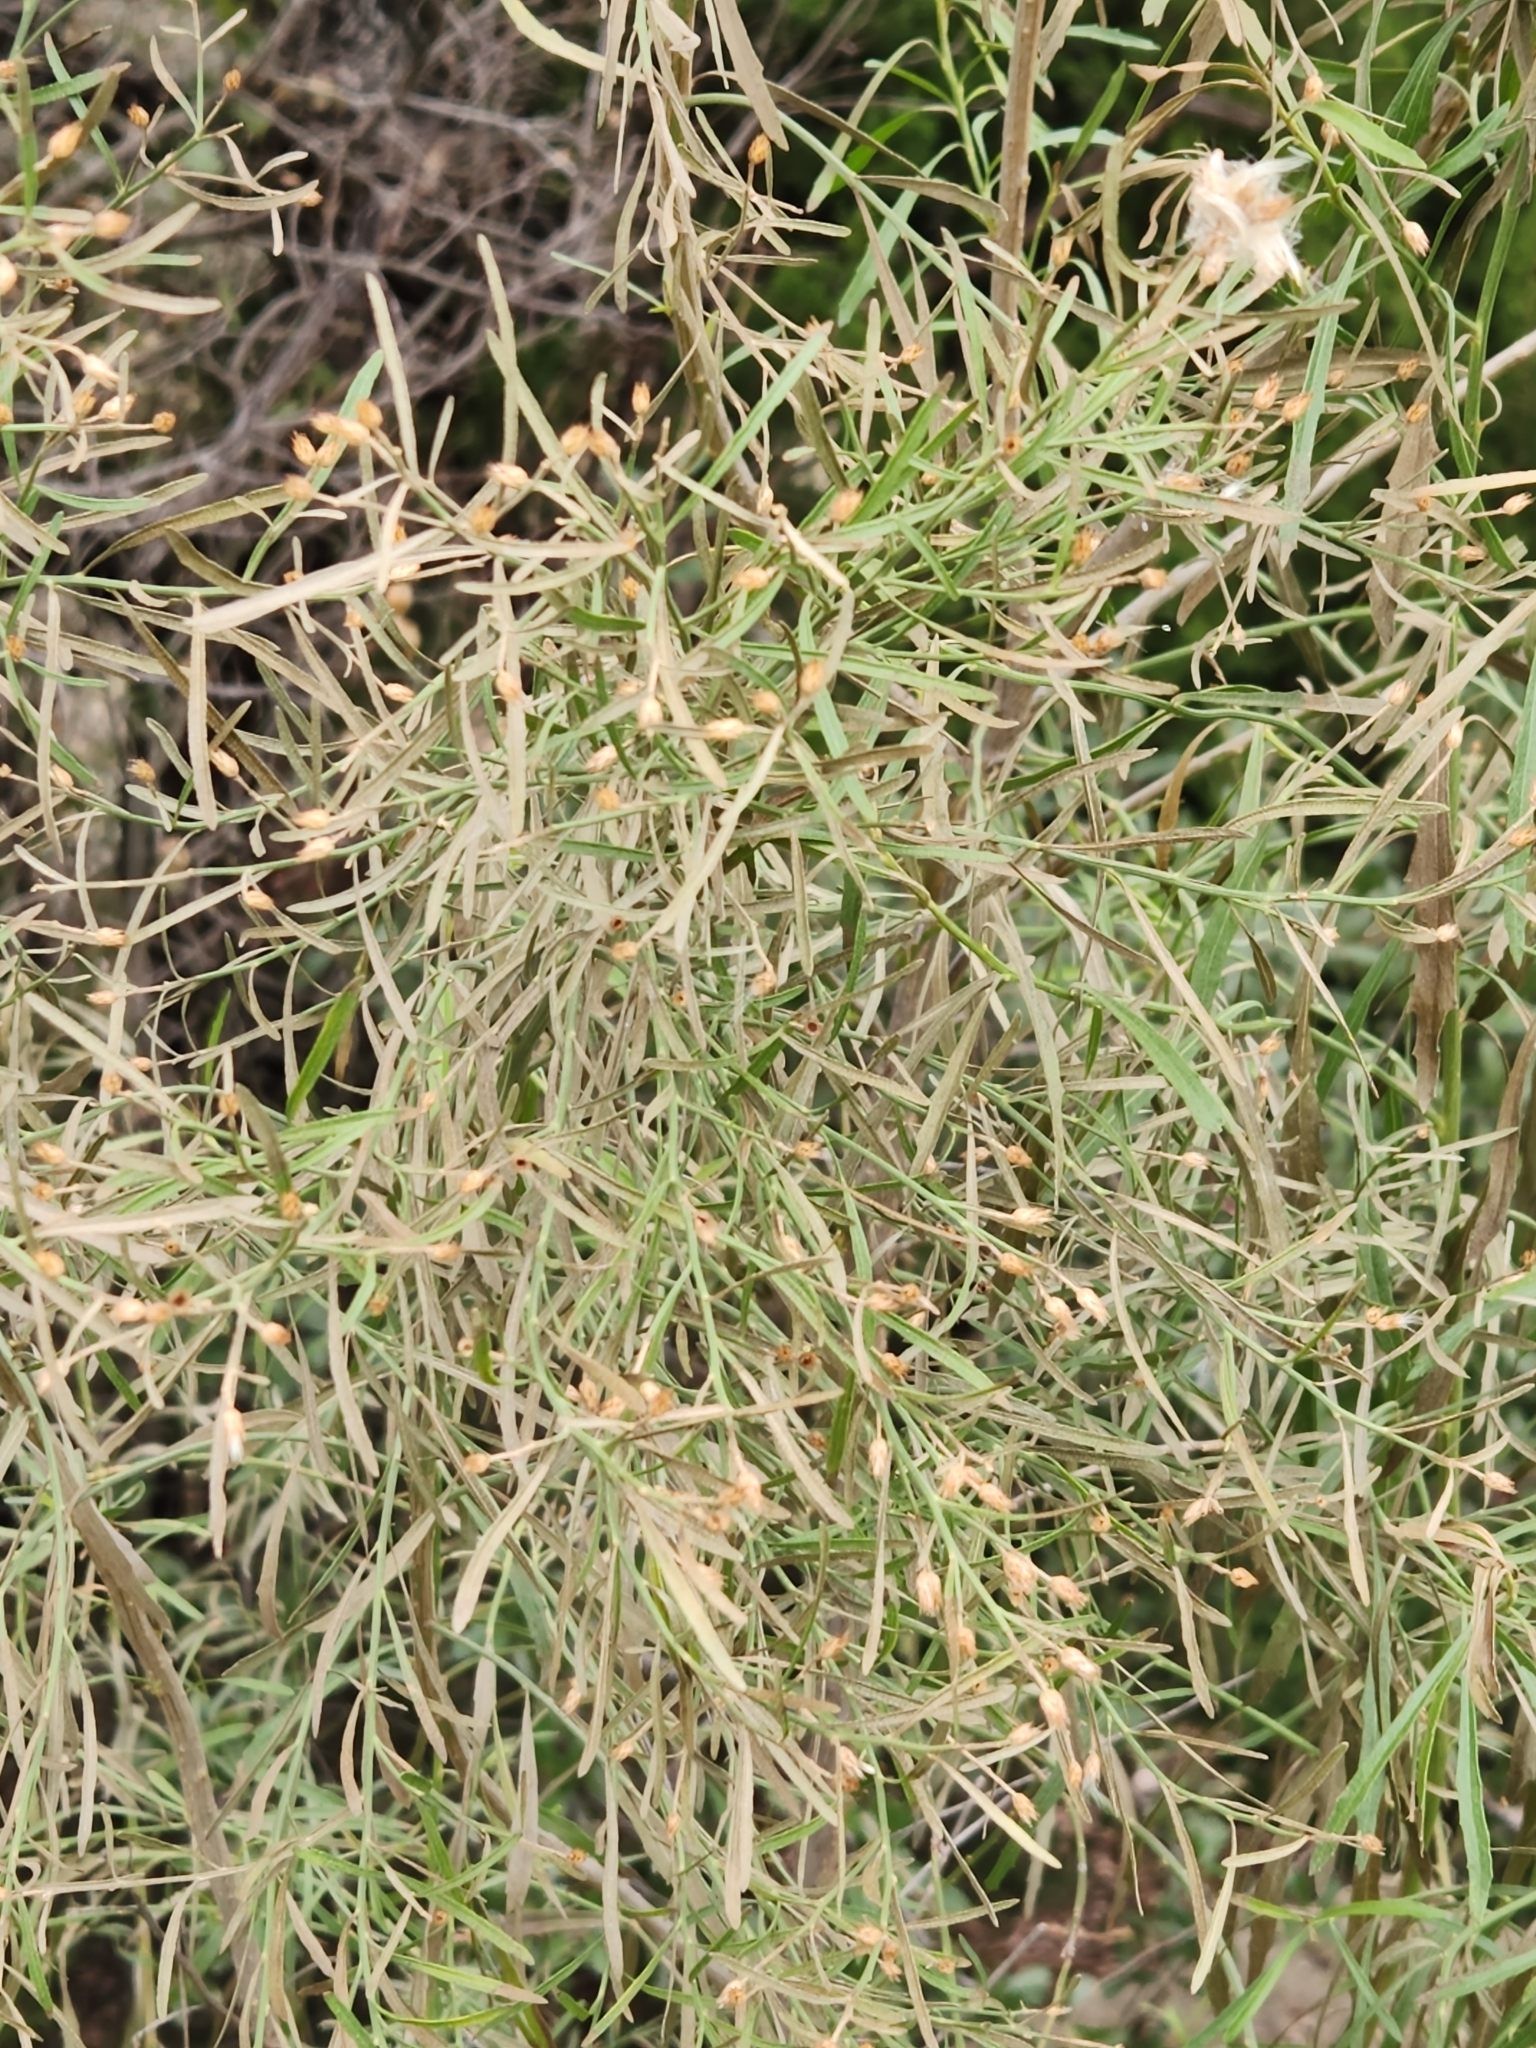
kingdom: Plantae
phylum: Tracheophyta
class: Magnoliopsida
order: Asterales
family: Asteraceae
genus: Baccharis
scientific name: Baccharis neglecta
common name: Roosevelt-weed
